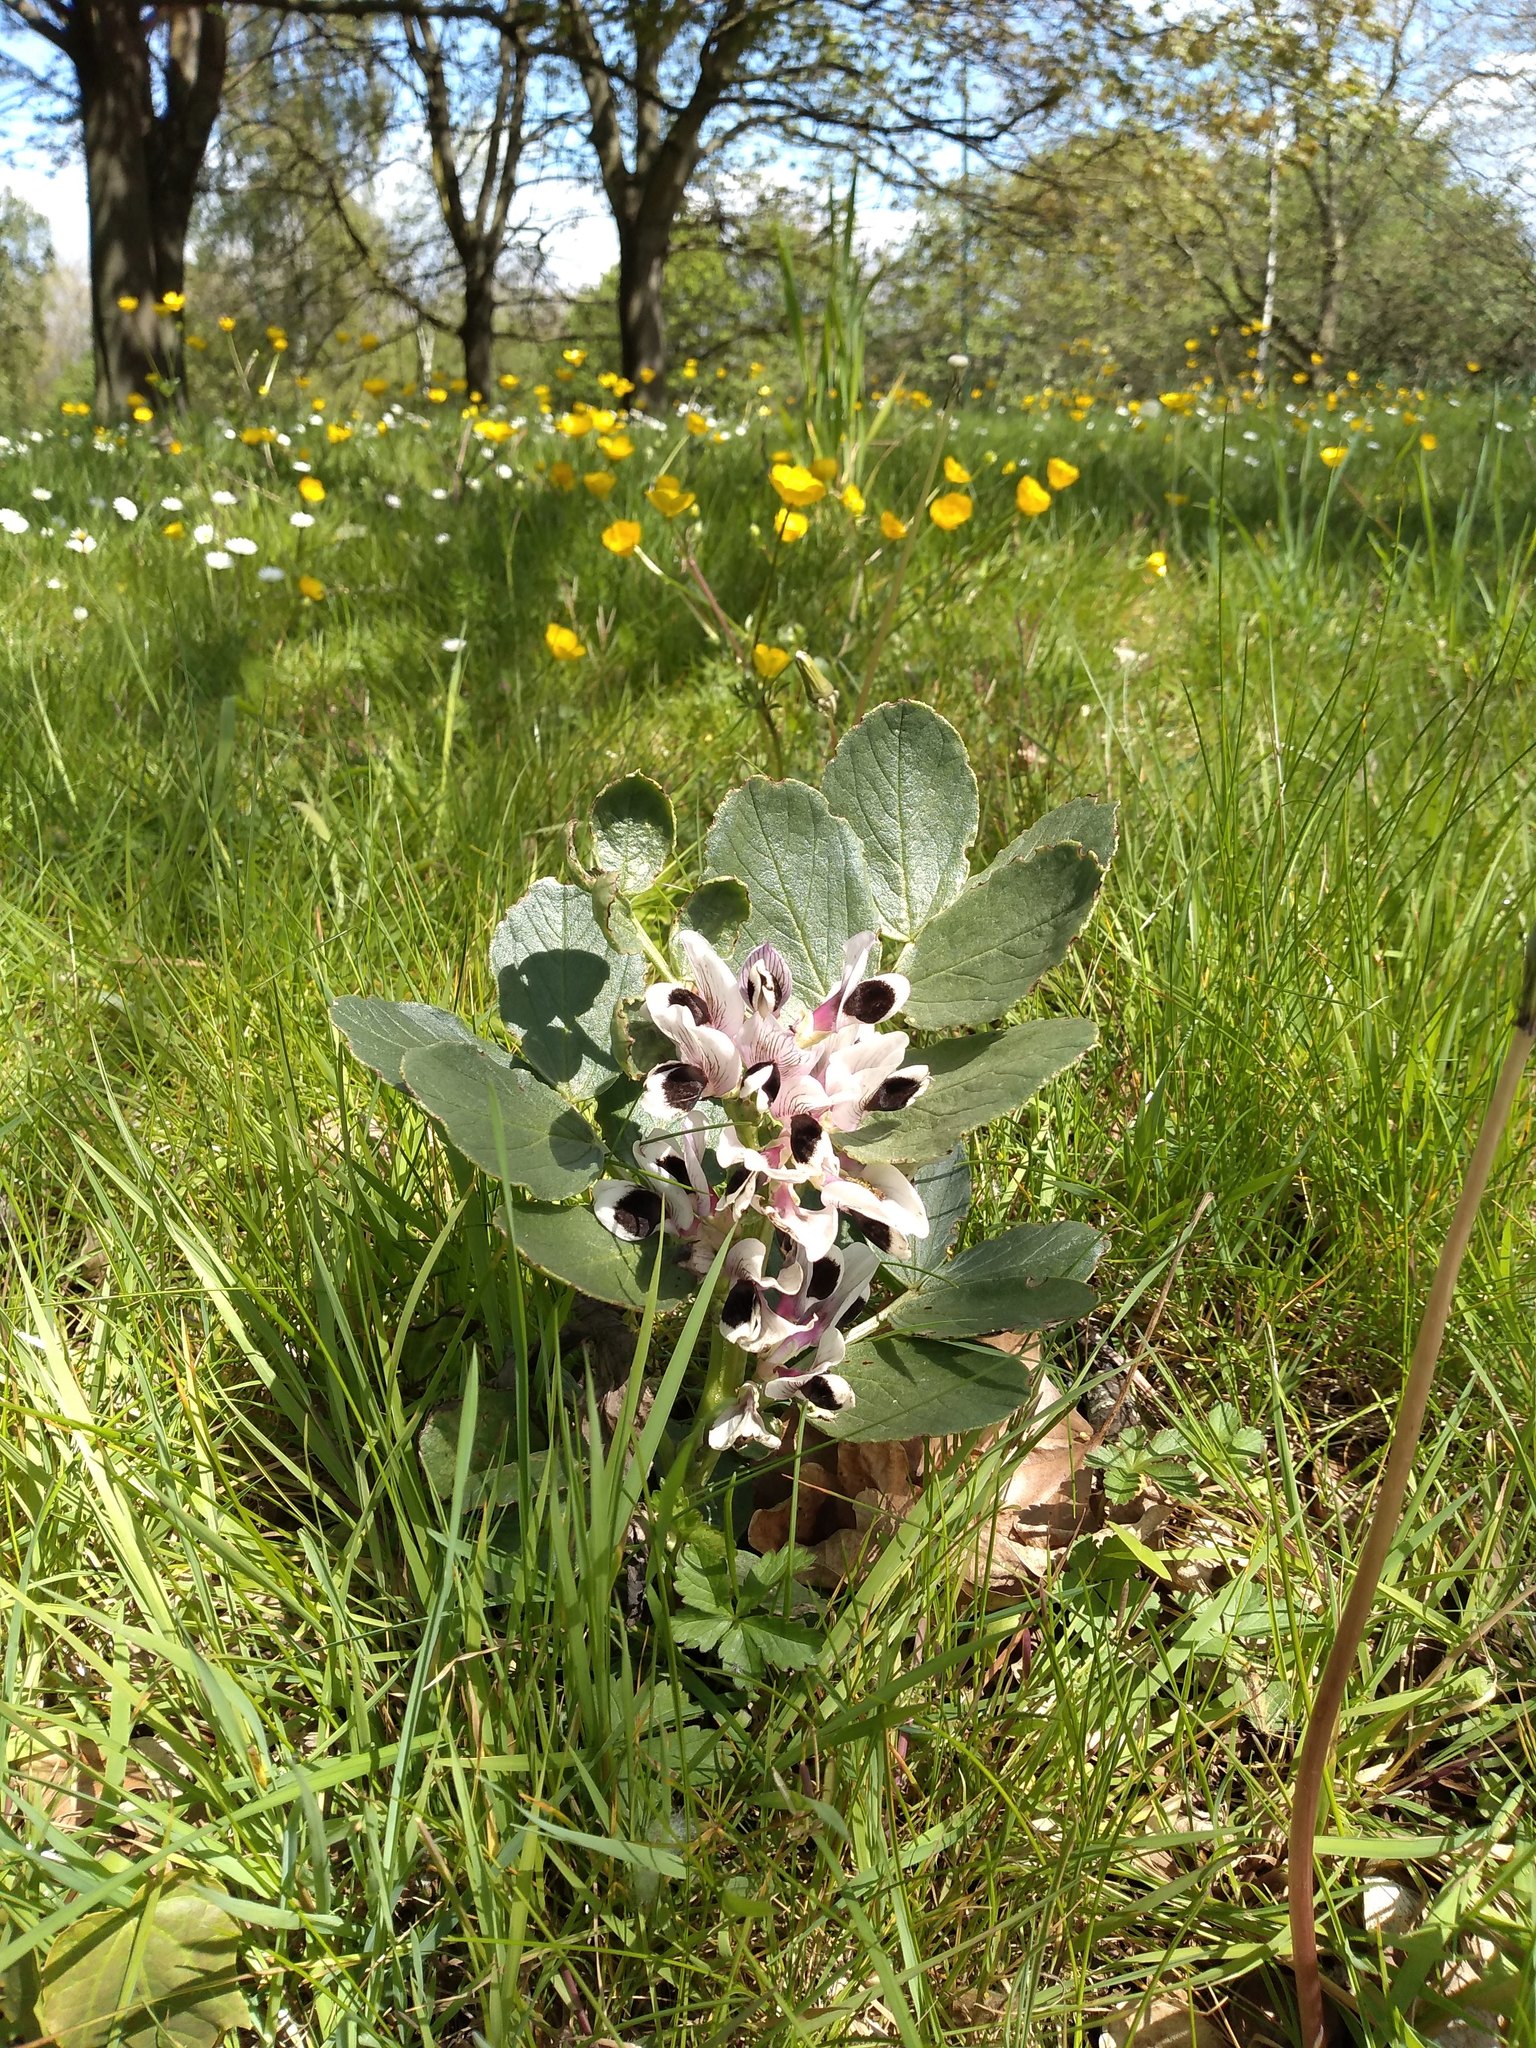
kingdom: Plantae
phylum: Tracheophyta
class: Magnoliopsida
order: Fabales
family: Fabaceae
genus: Vicia
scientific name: Vicia faba
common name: Broad bean
